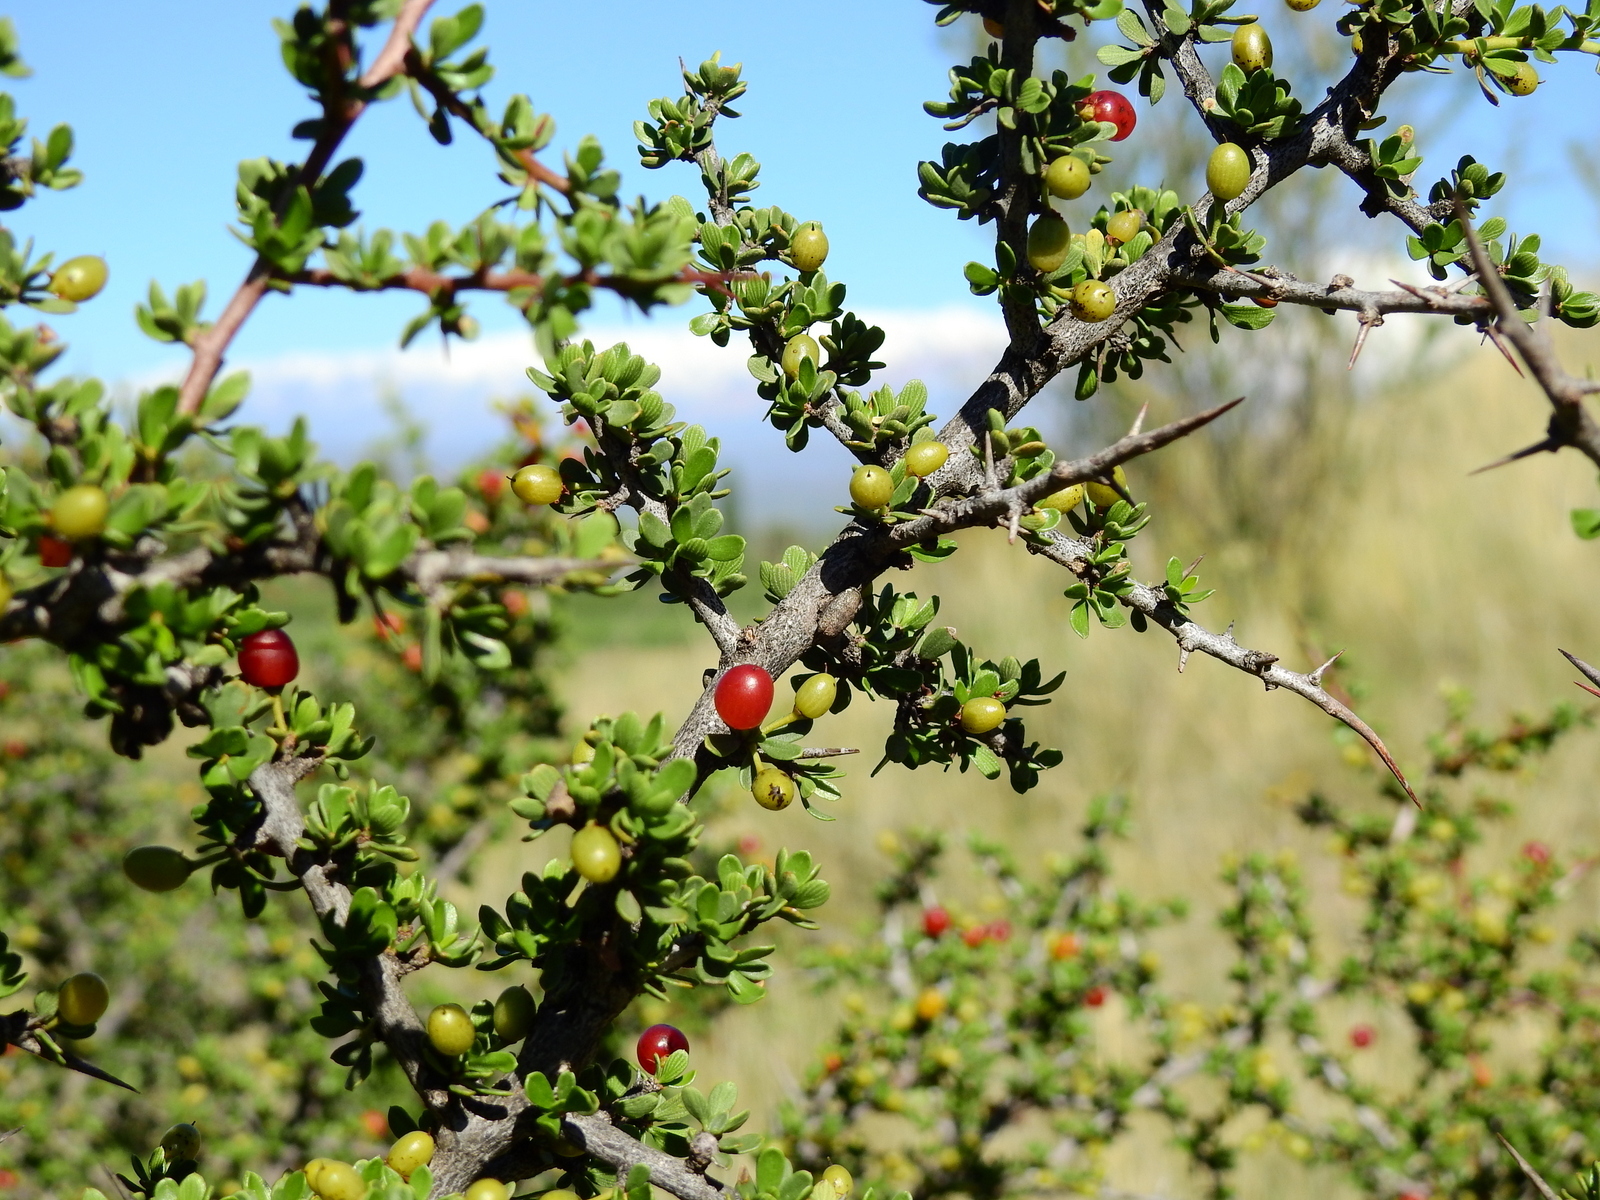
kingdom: Plantae
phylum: Tracheophyta
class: Magnoliopsida
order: Rosales
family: Rhamnaceae
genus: Condalia
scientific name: Condalia microphylla
